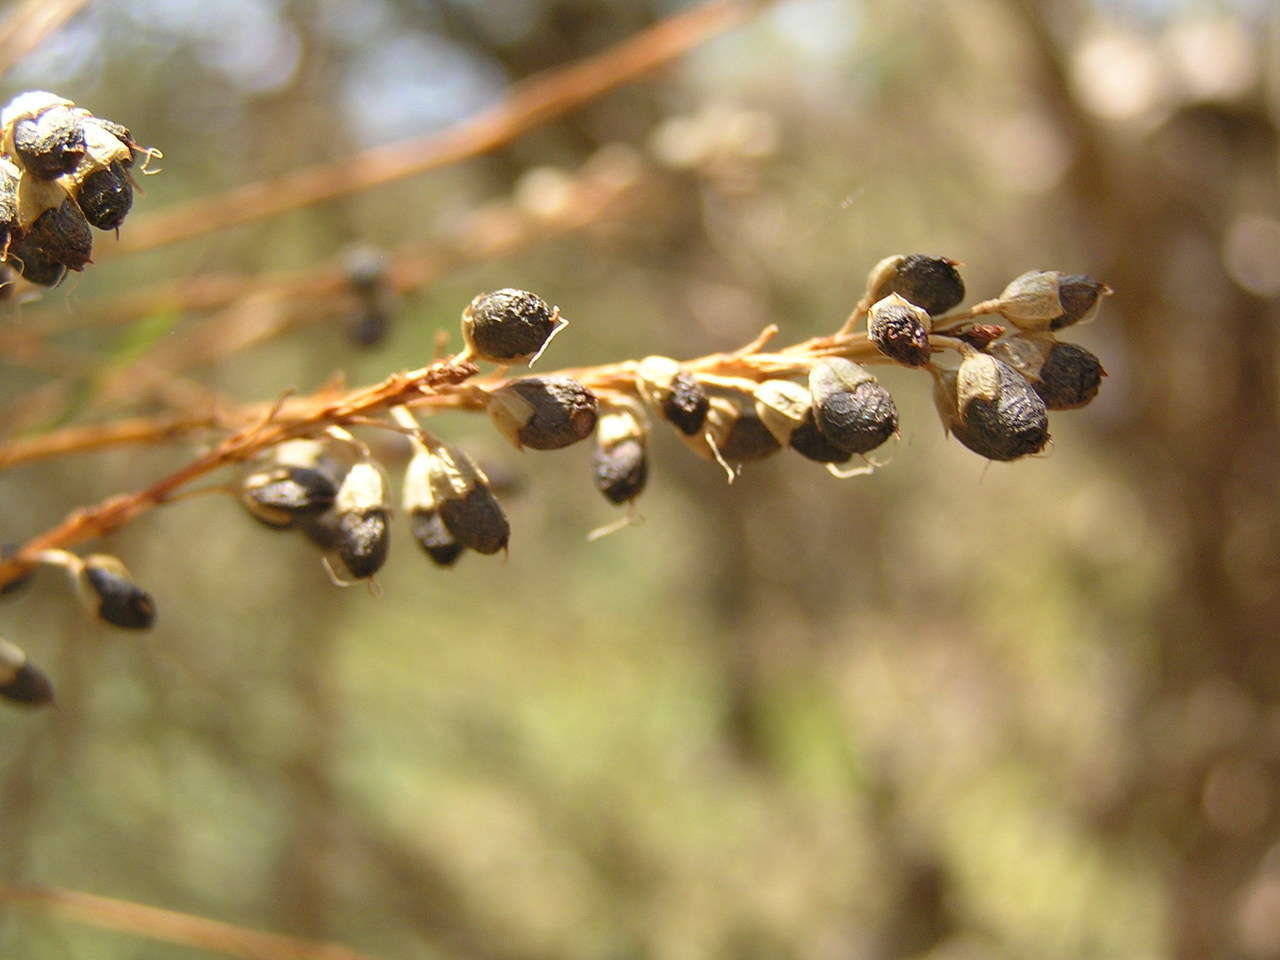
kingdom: Plantae
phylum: Tracheophyta
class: Magnoliopsida
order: Fabales
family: Fabaceae
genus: Viminaria
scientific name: Viminaria juncea
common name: Golden spray
